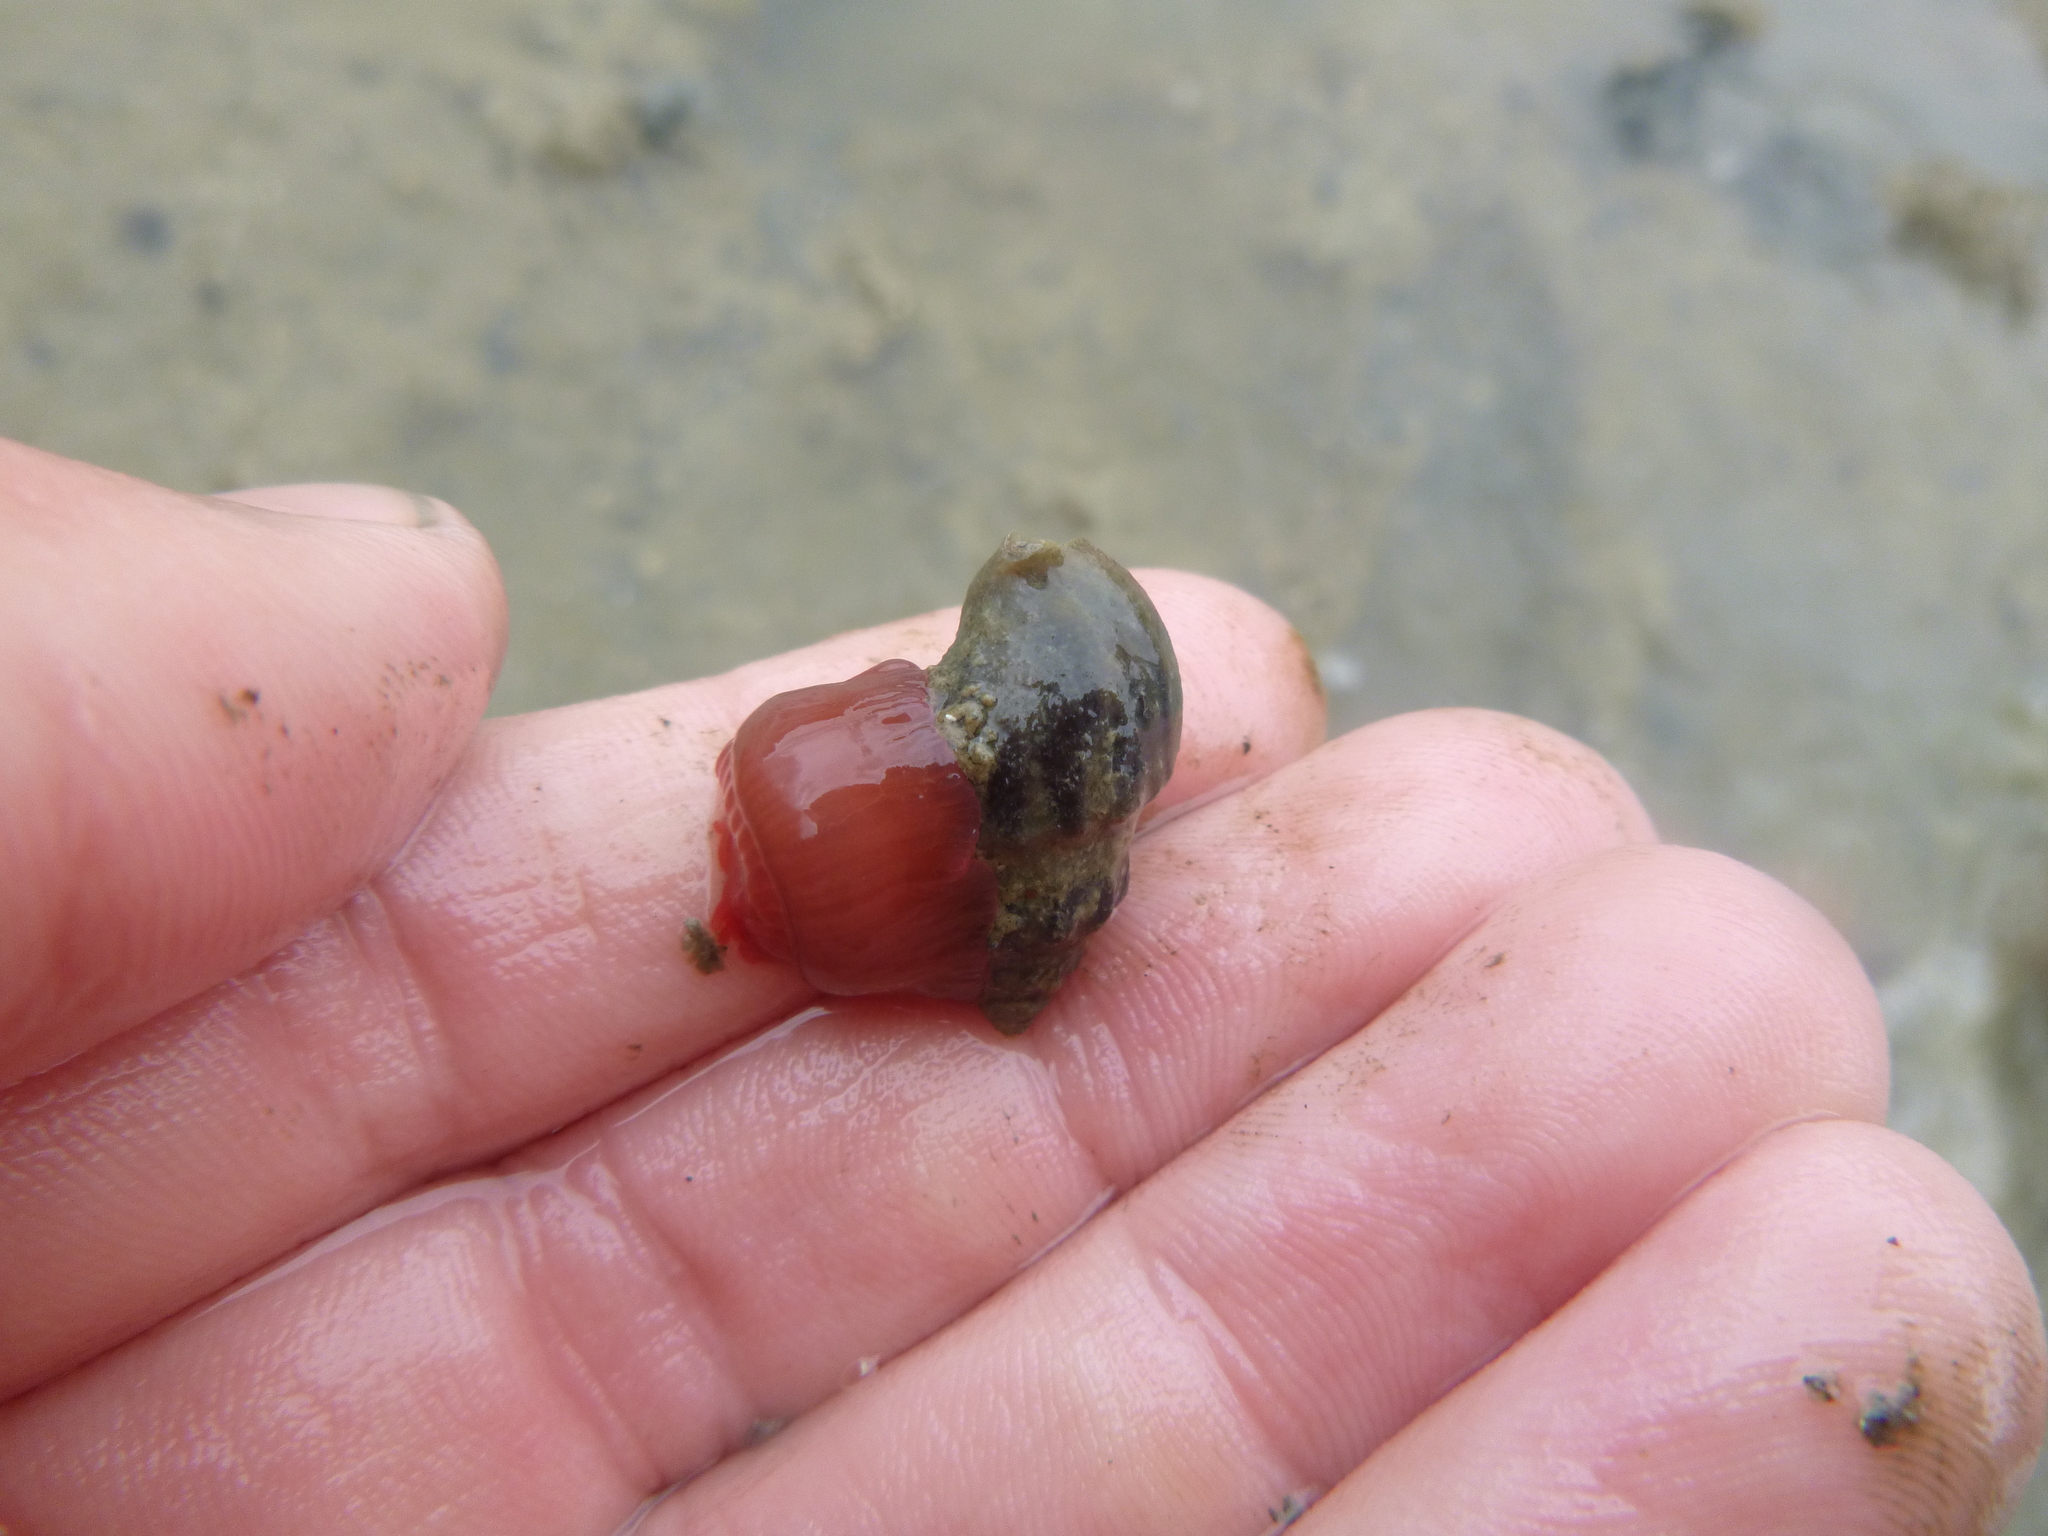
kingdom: Animalia
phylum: Cnidaria
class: Anthozoa
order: Actiniaria
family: Actiniidae
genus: Actinia
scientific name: Actinia tenebrosa
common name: Waratah anemone
